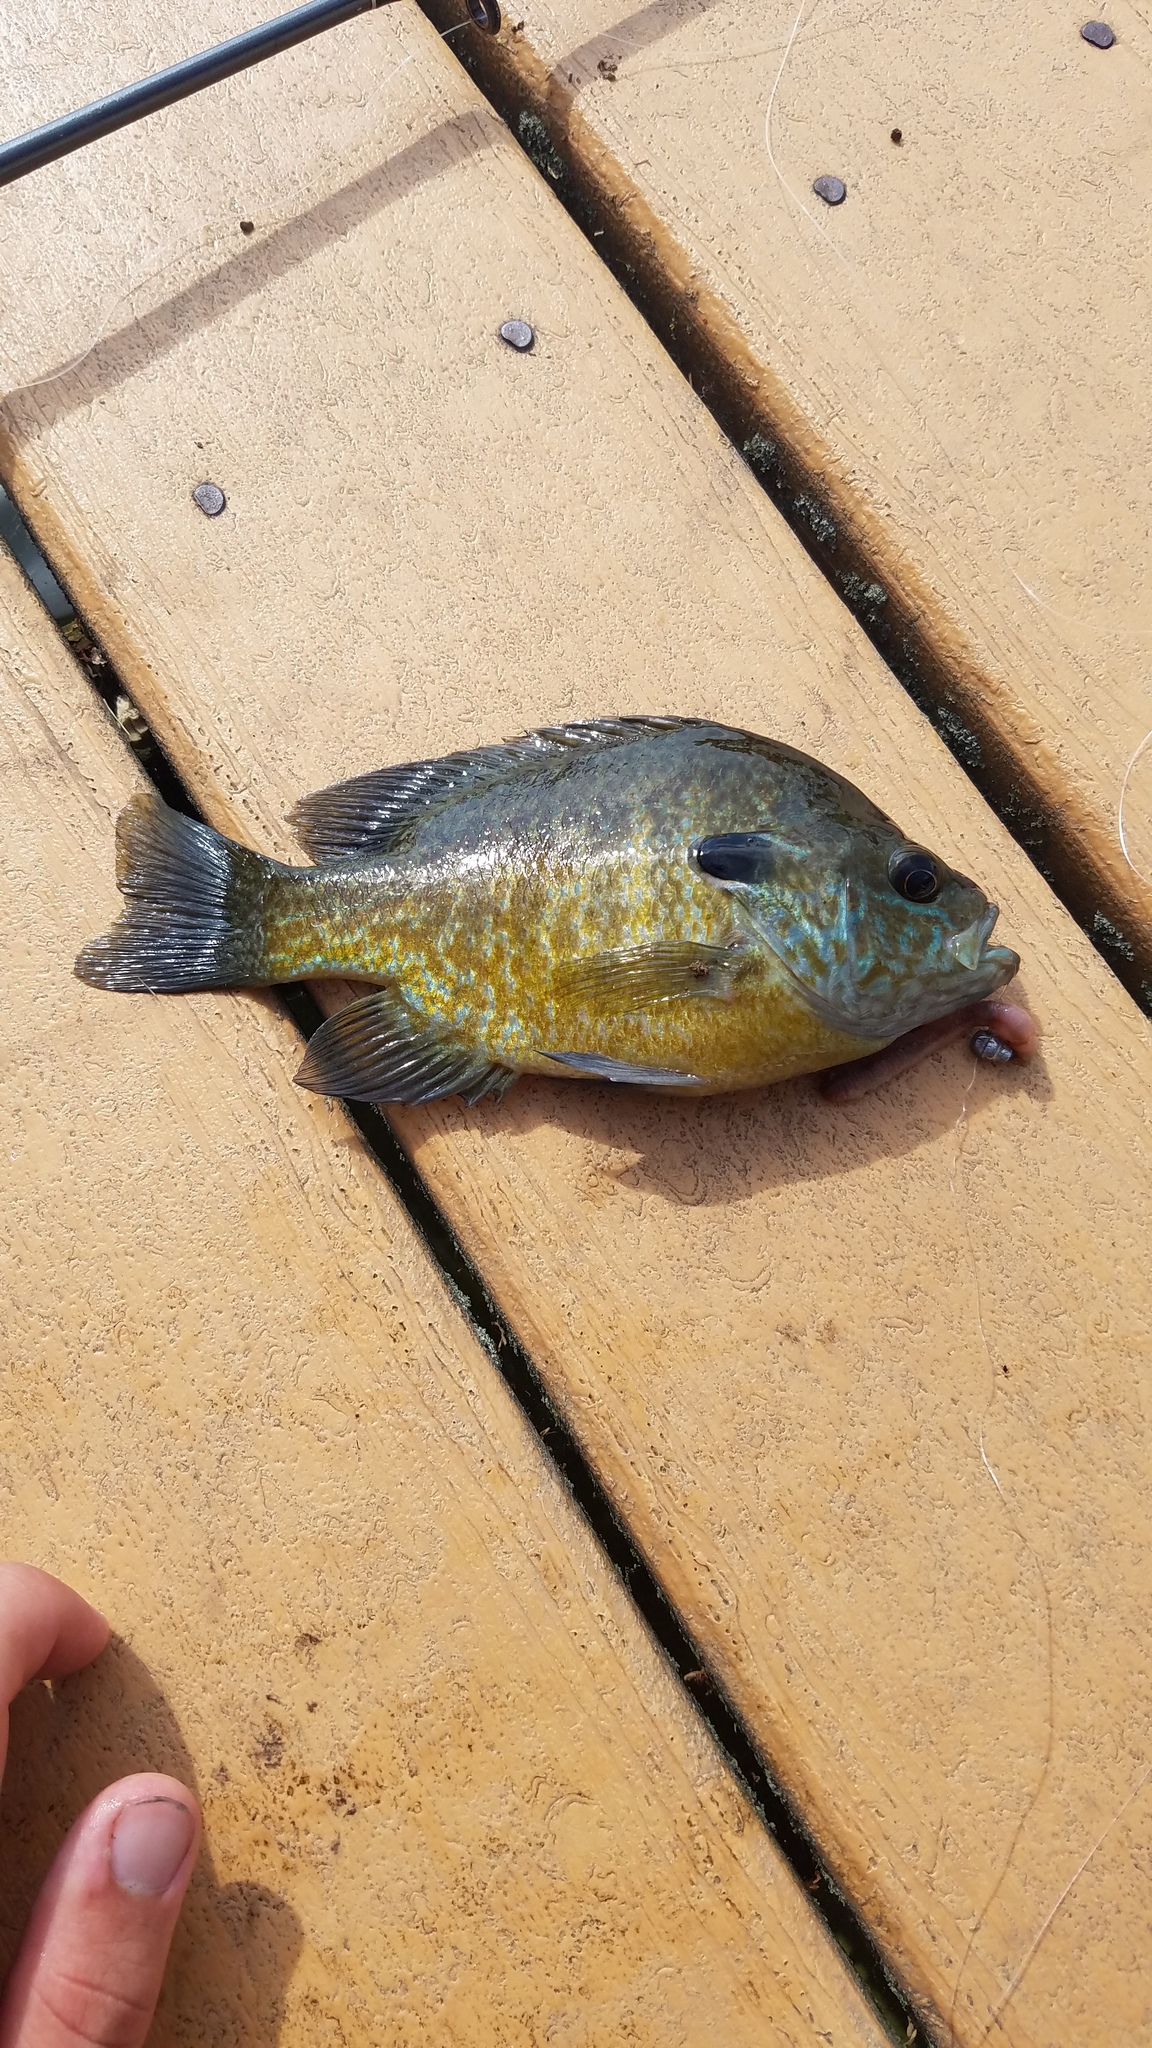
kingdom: Animalia
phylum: Chordata
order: Perciformes
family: Centrarchidae
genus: Lepomis
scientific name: Lepomis
